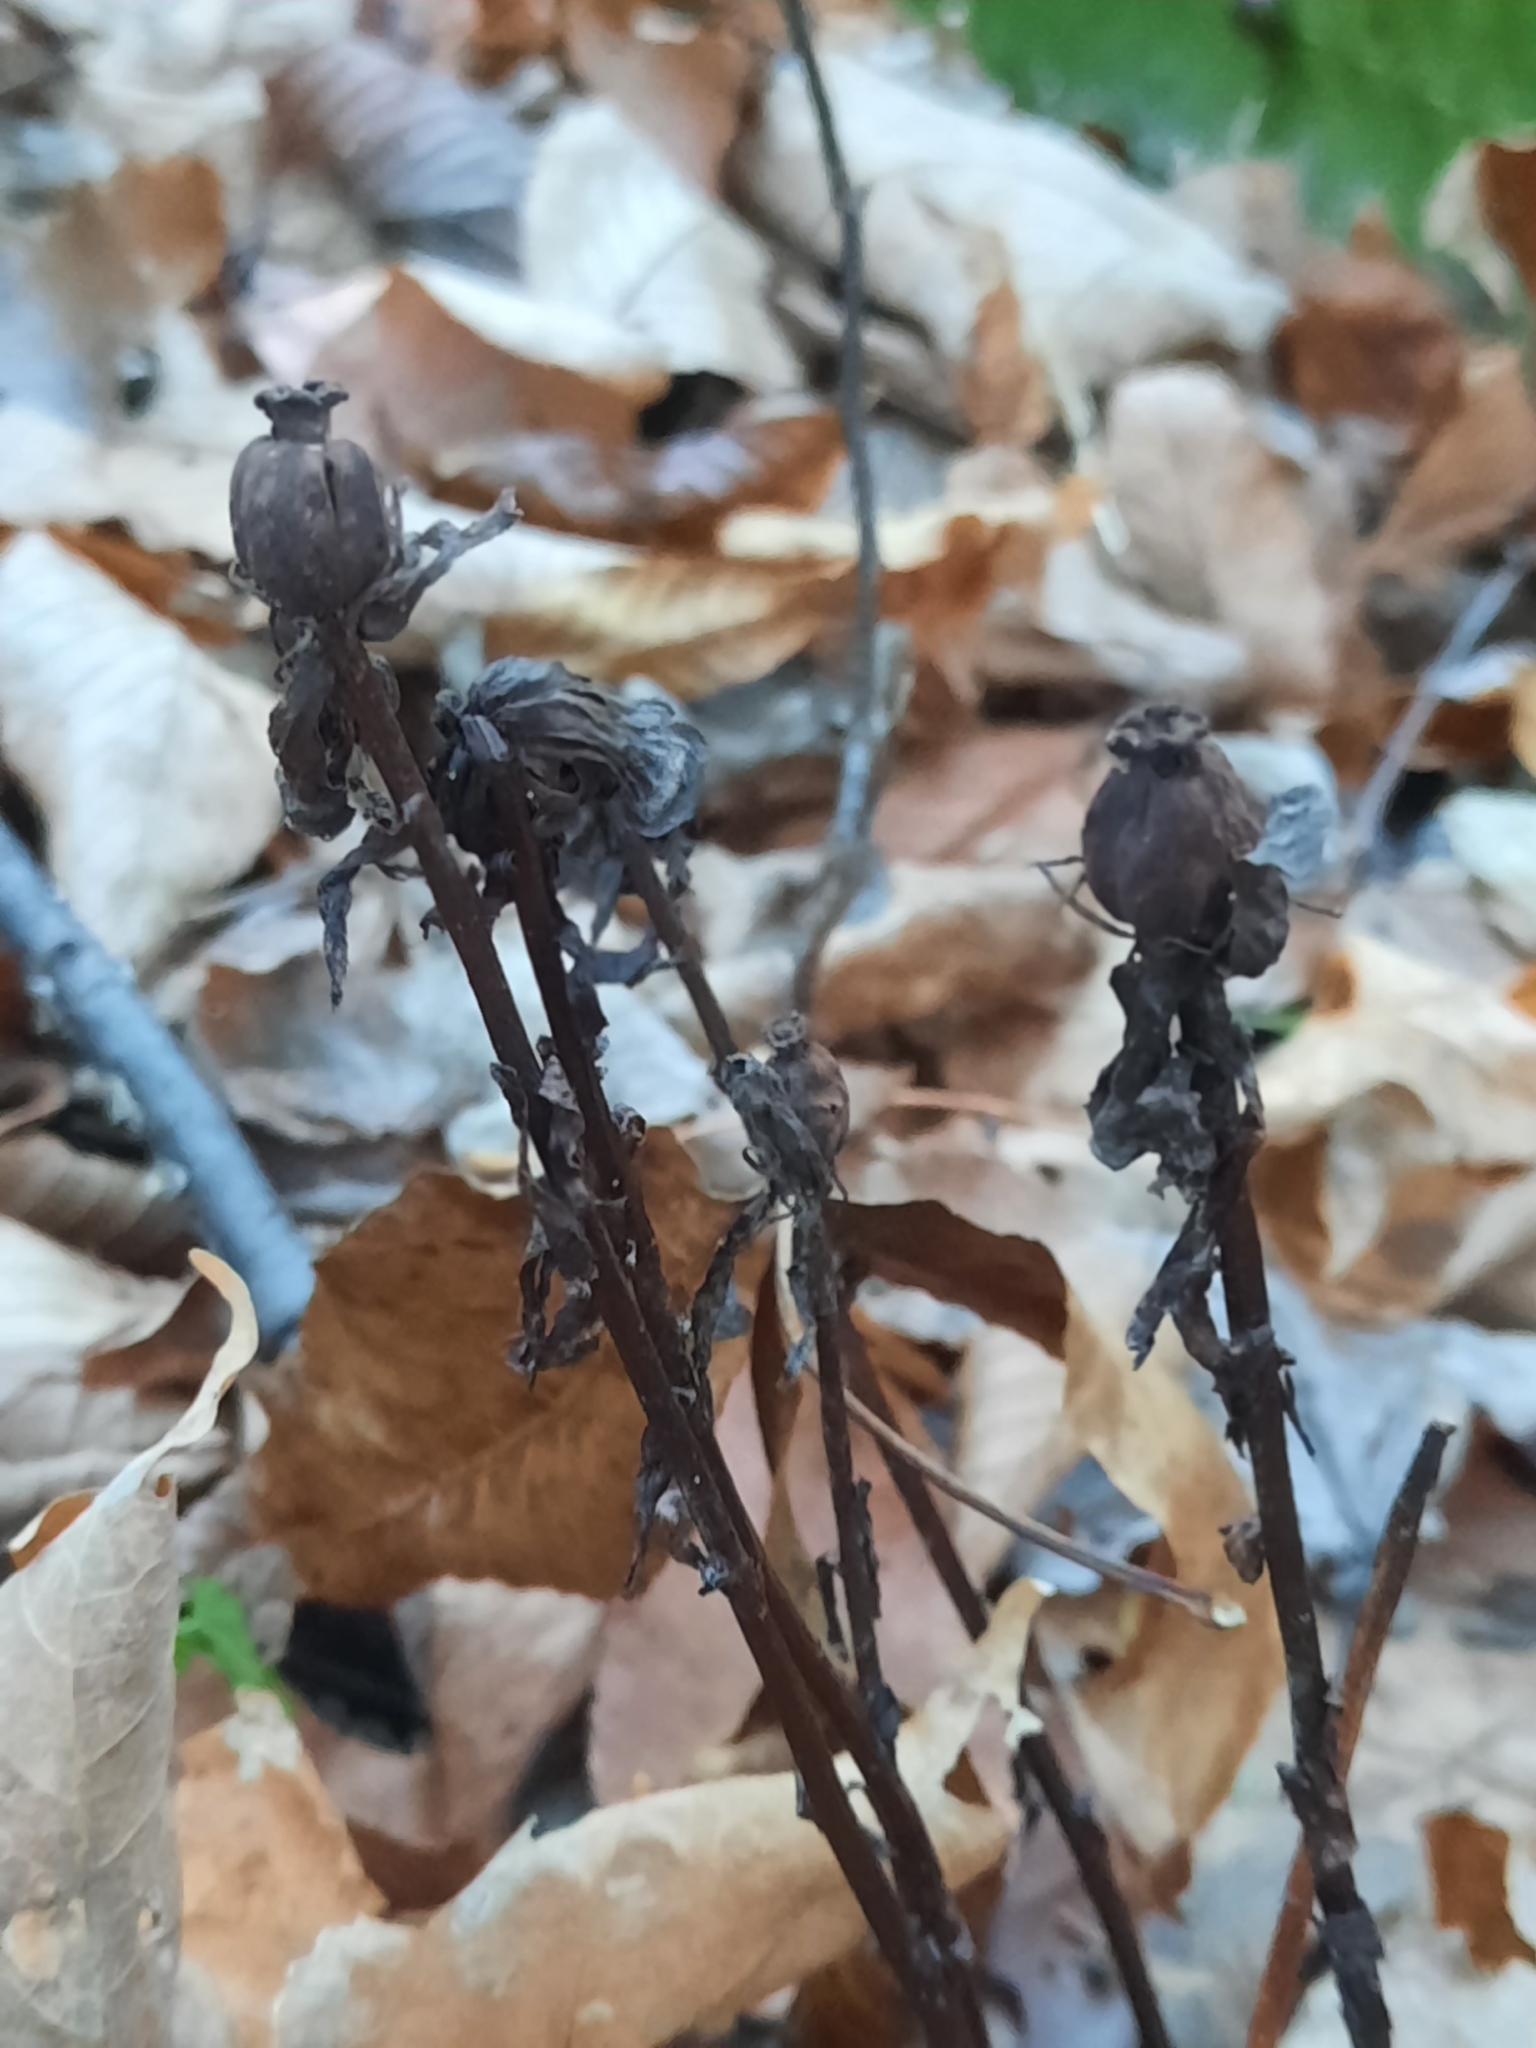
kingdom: Plantae
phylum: Tracheophyta
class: Magnoliopsida
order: Ericales
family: Ericaceae
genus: Monotropa
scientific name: Monotropa uniflora
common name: Convulsion root
